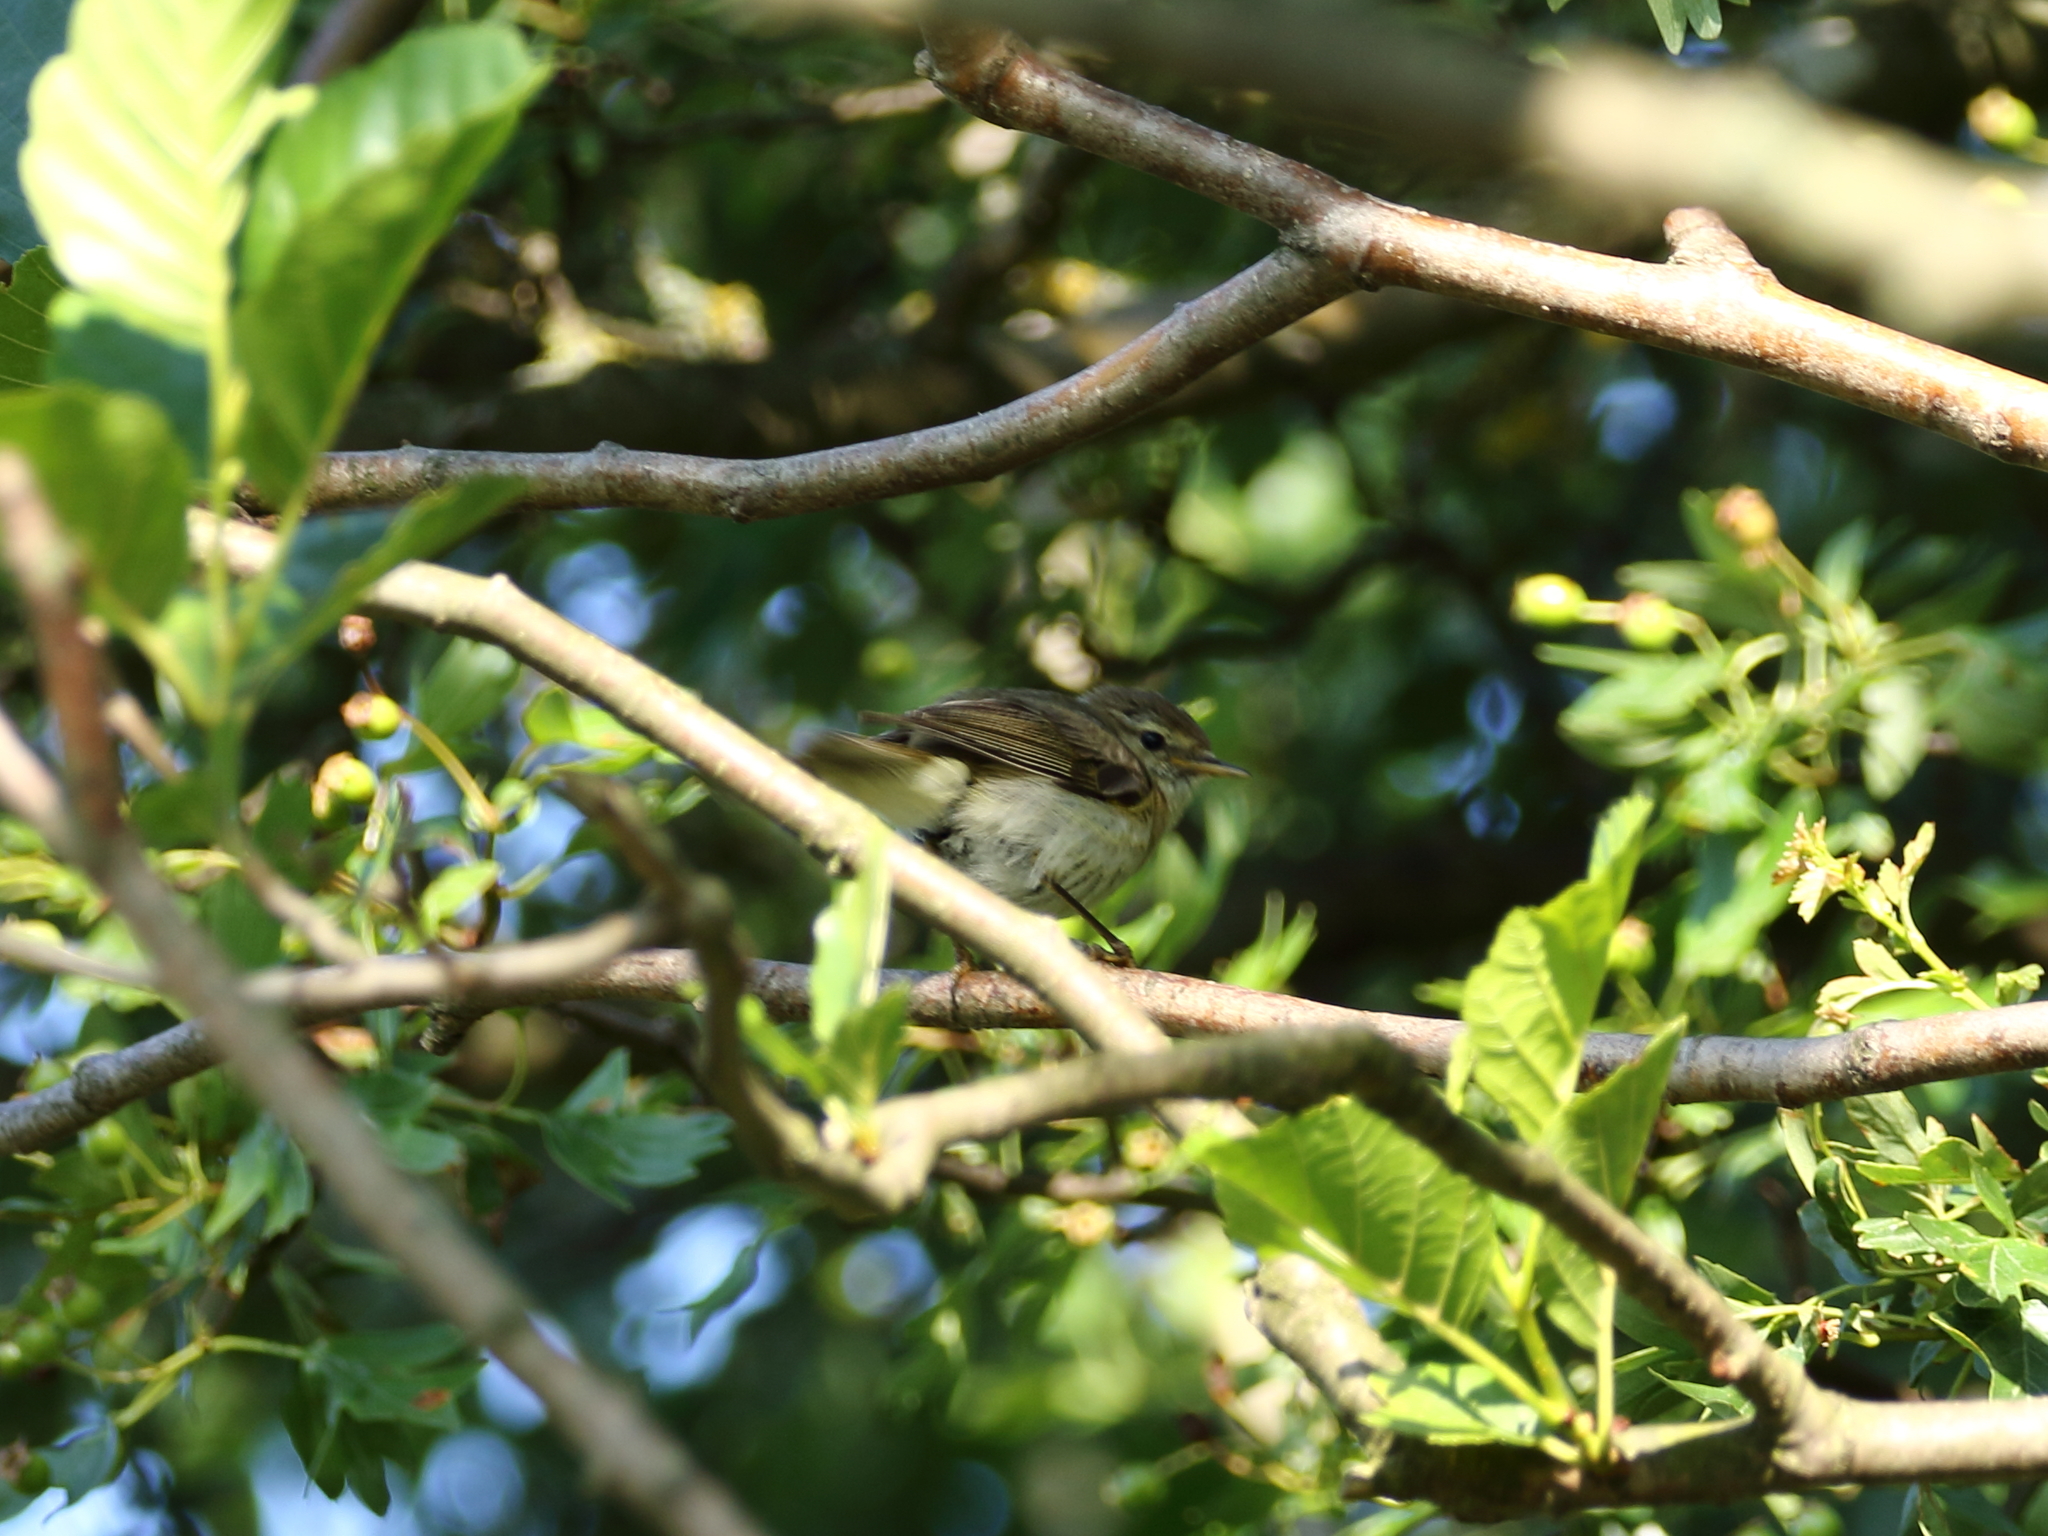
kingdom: Animalia
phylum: Chordata
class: Aves
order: Passeriformes
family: Phylloscopidae
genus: Phylloscopus
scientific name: Phylloscopus collybita
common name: Common chiffchaff
